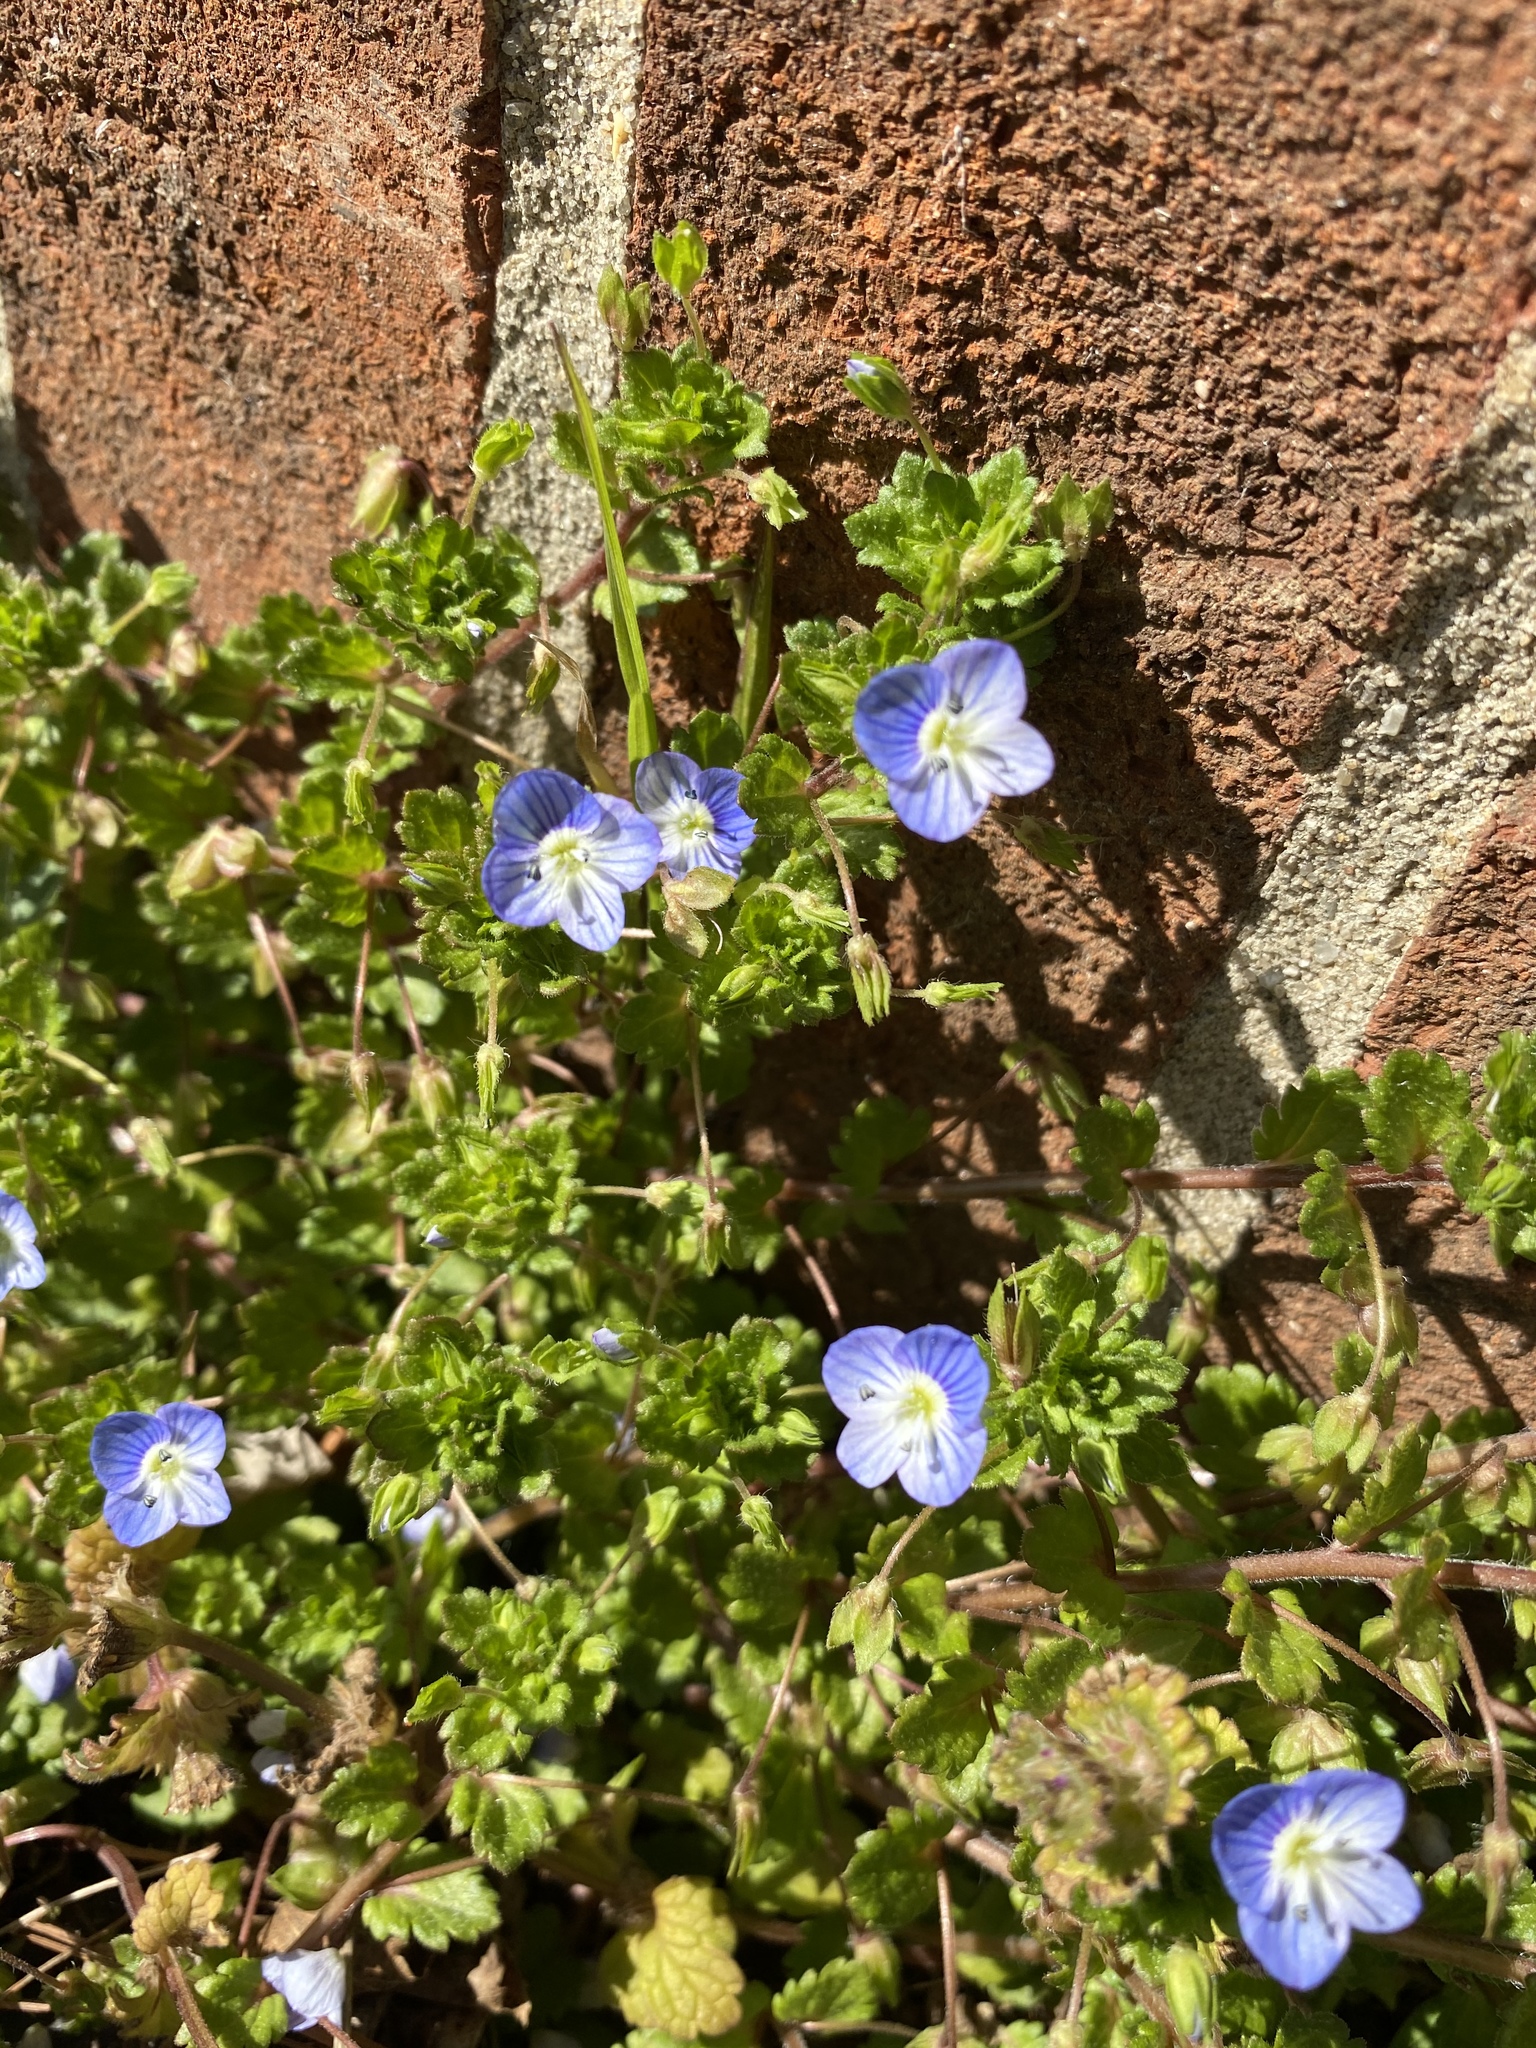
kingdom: Plantae
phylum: Tracheophyta
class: Magnoliopsida
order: Lamiales
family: Plantaginaceae
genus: Veronica
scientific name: Veronica persica
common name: Common field-speedwell
